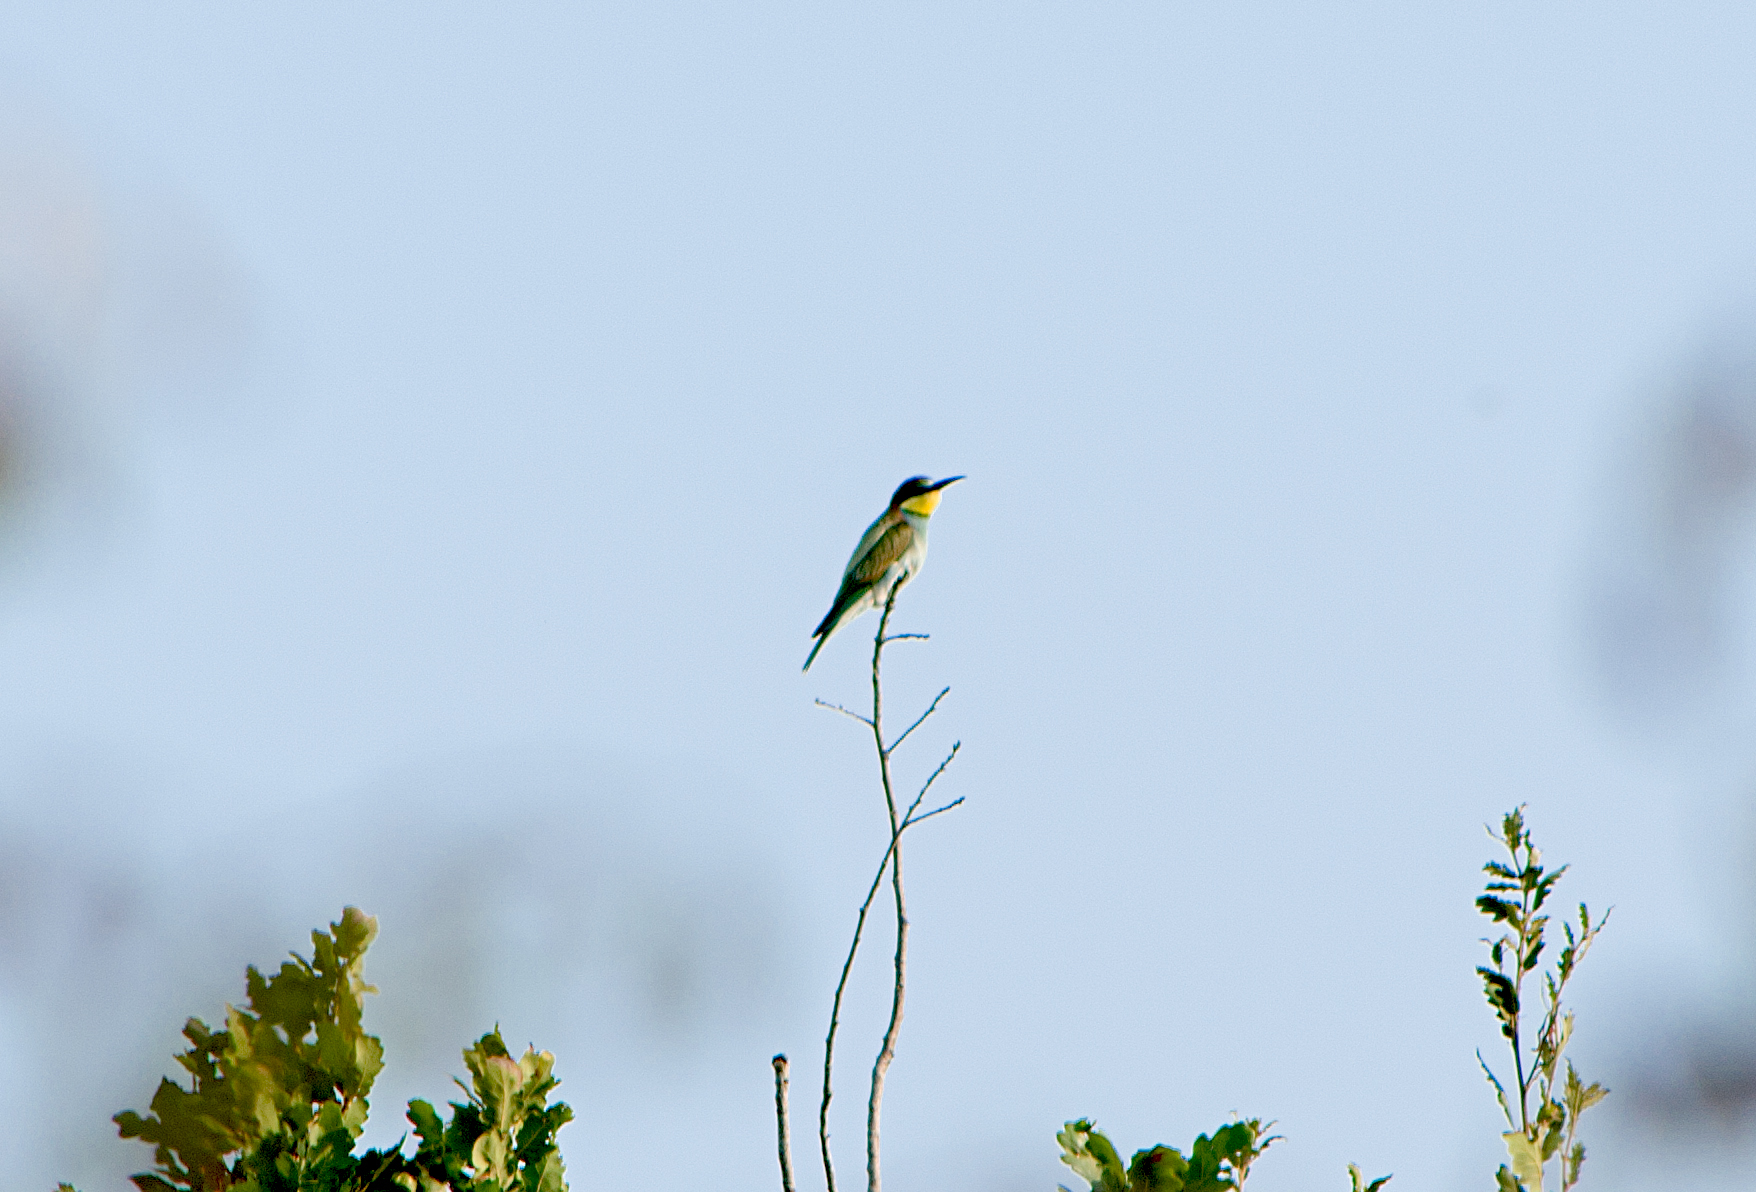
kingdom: Animalia
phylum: Chordata
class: Aves
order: Coraciiformes
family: Meropidae
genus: Merops
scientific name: Merops apiaster
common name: European bee-eater
